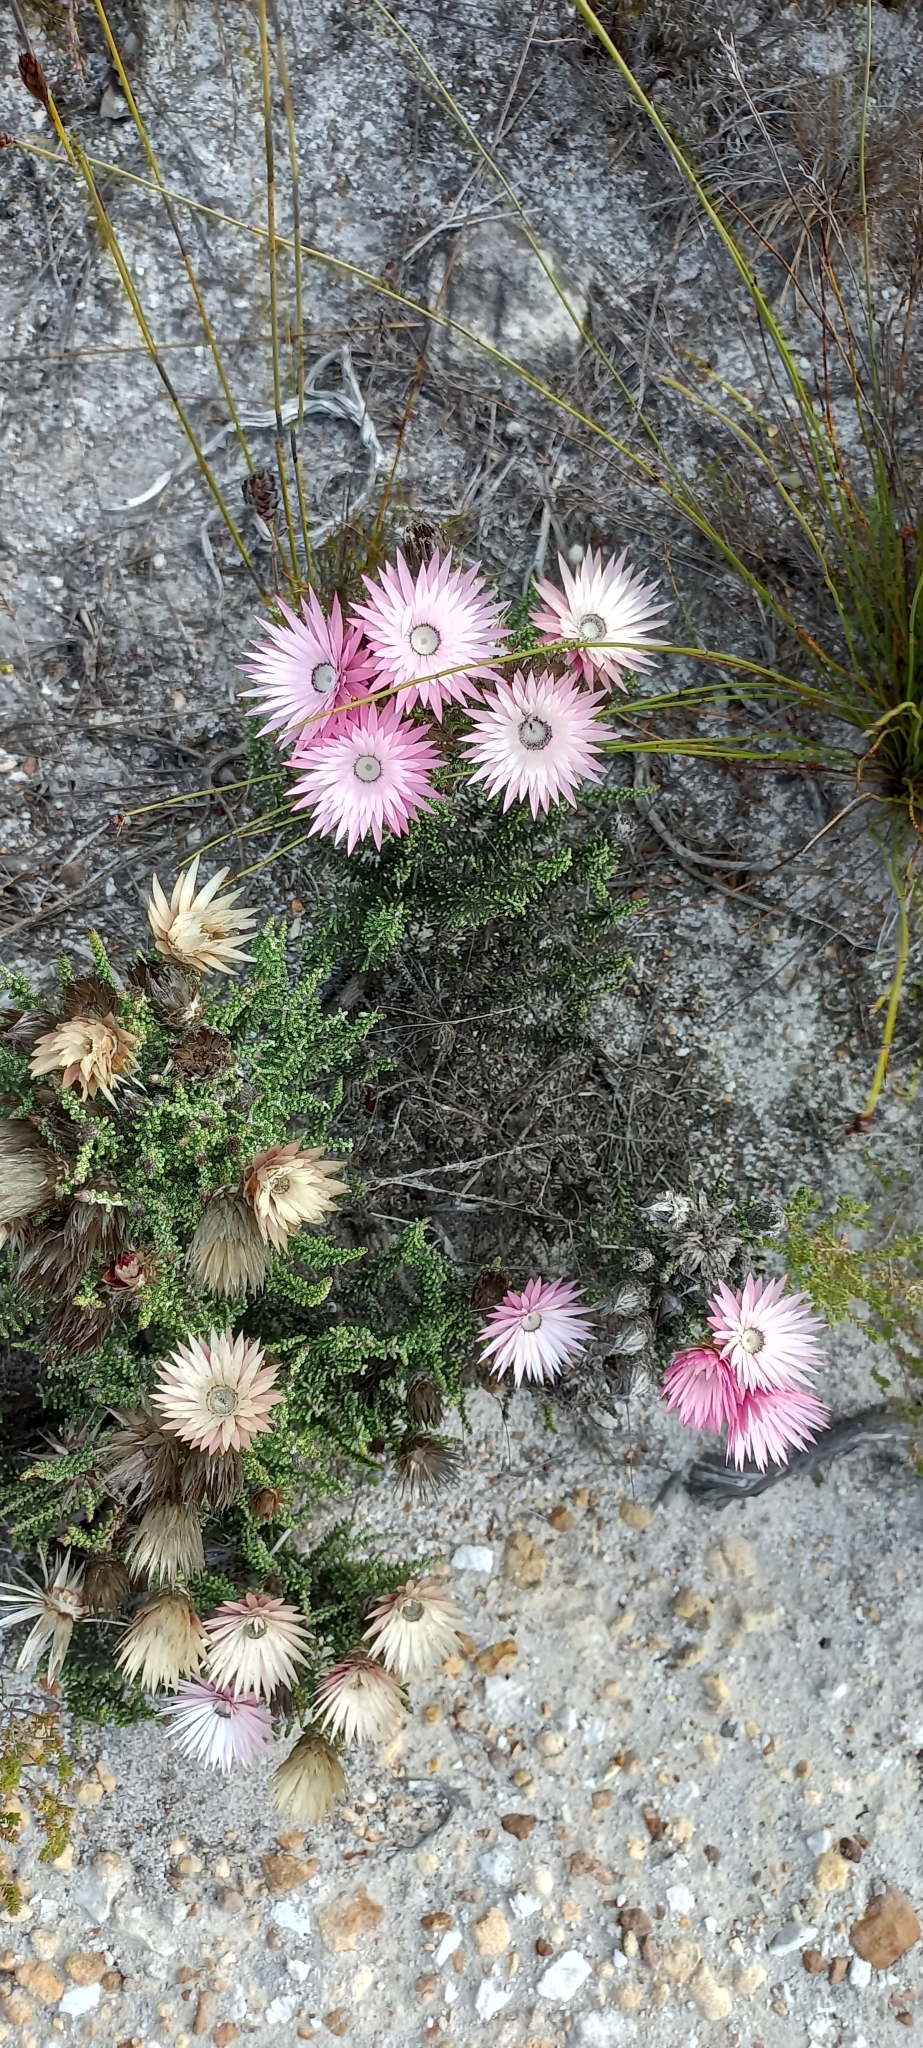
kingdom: Plantae
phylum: Tracheophyta
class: Magnoliopsida
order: Asterales
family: Asteraceae
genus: Phaenocoma
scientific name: Phaenocoma prolifera
